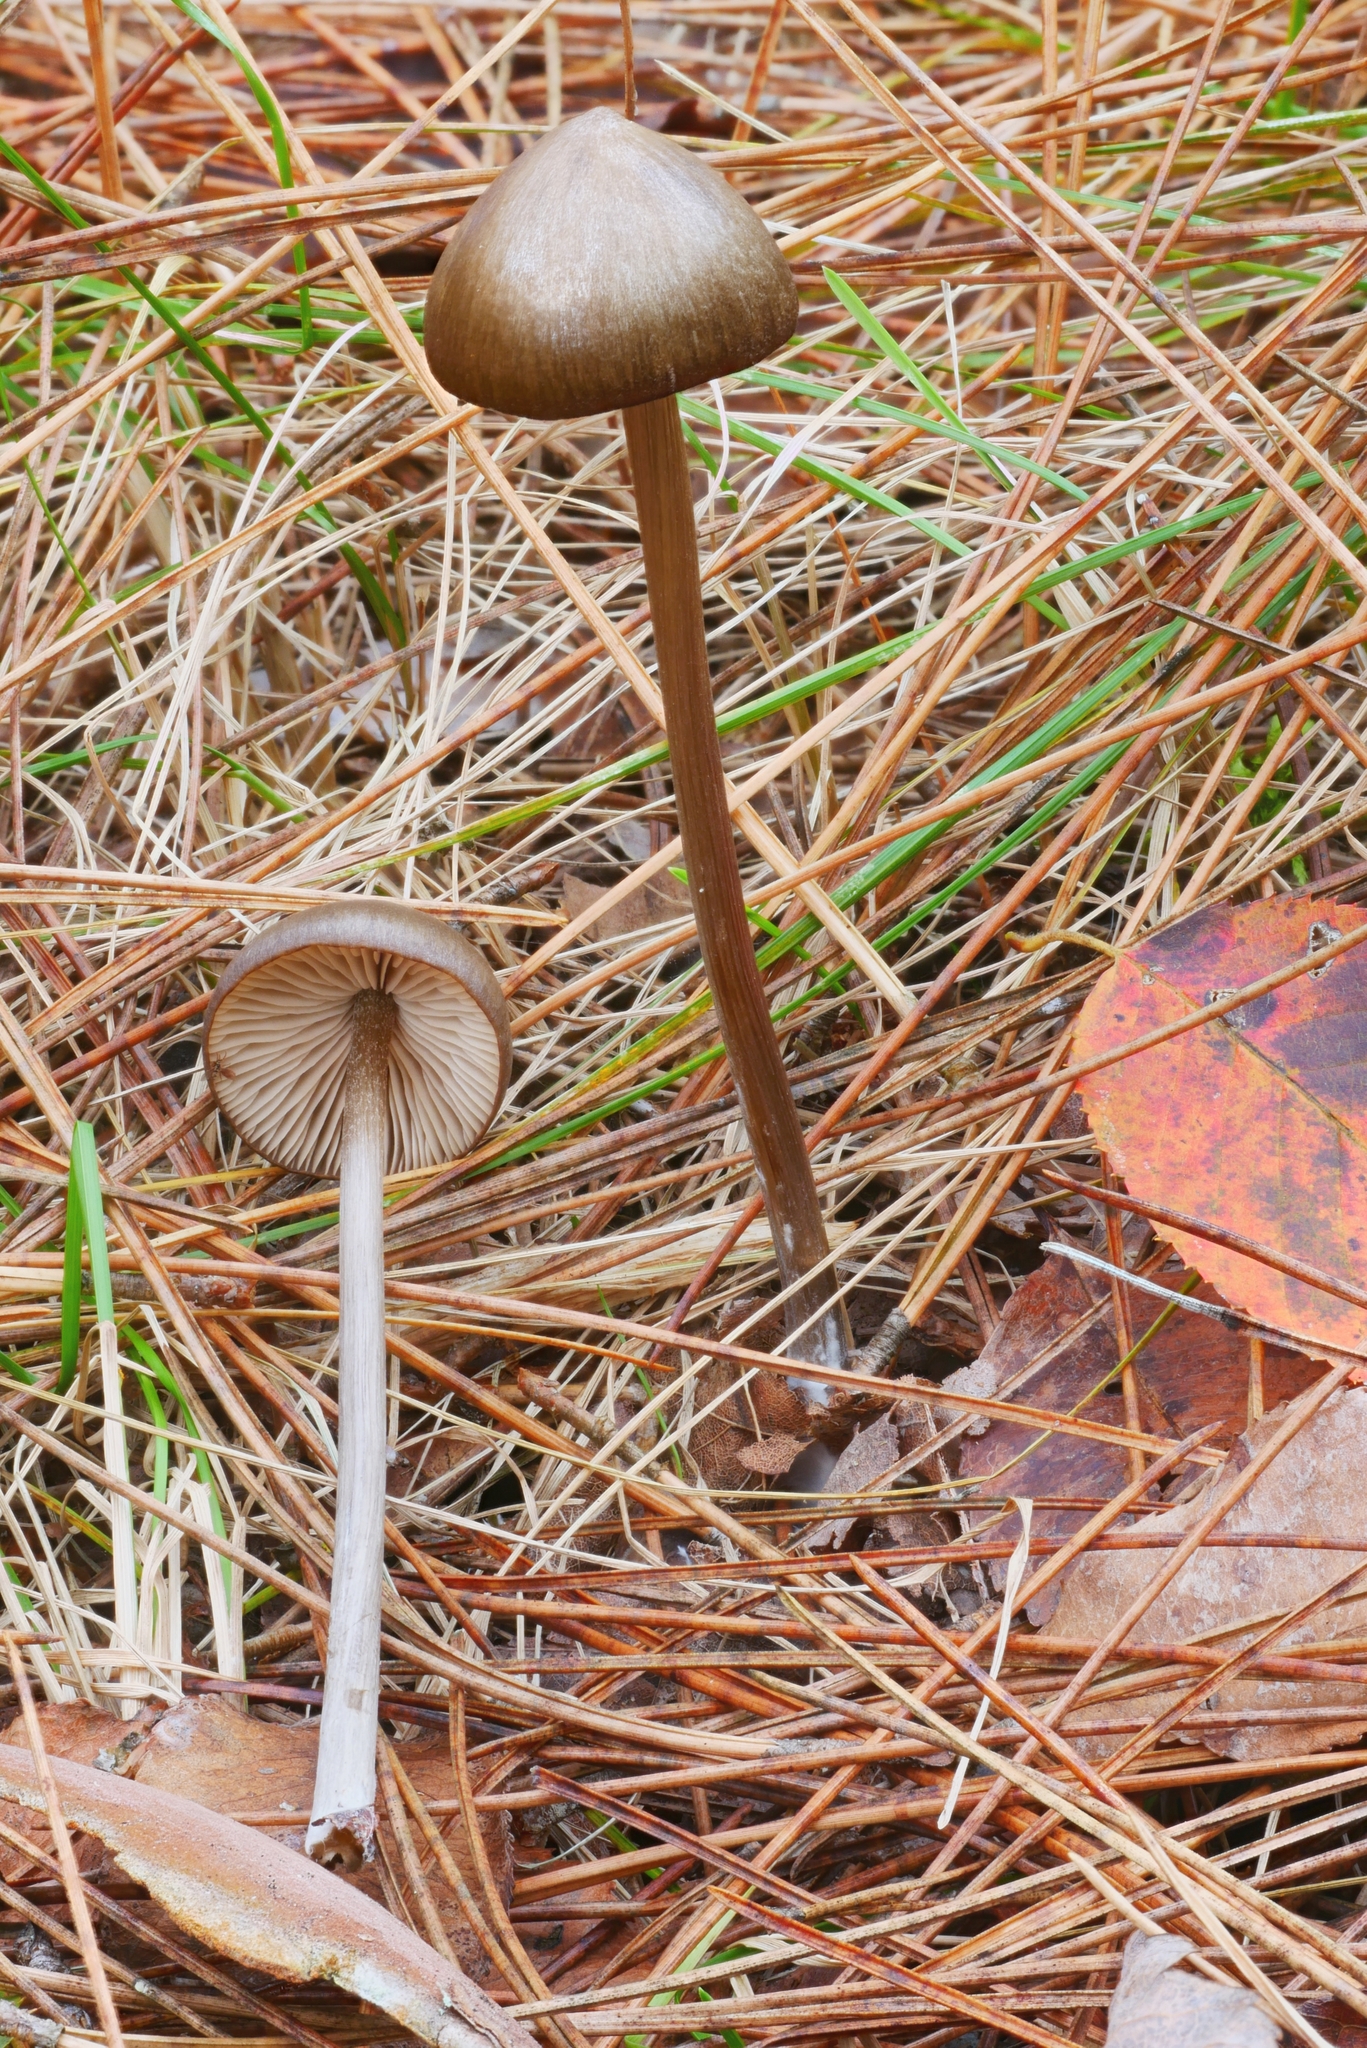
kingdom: Fungi
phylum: Basidiomycota
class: Agaricomycetes
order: Agaricales
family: Entolomataceae
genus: Entoloma
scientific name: Entoloma psammophilohebes
